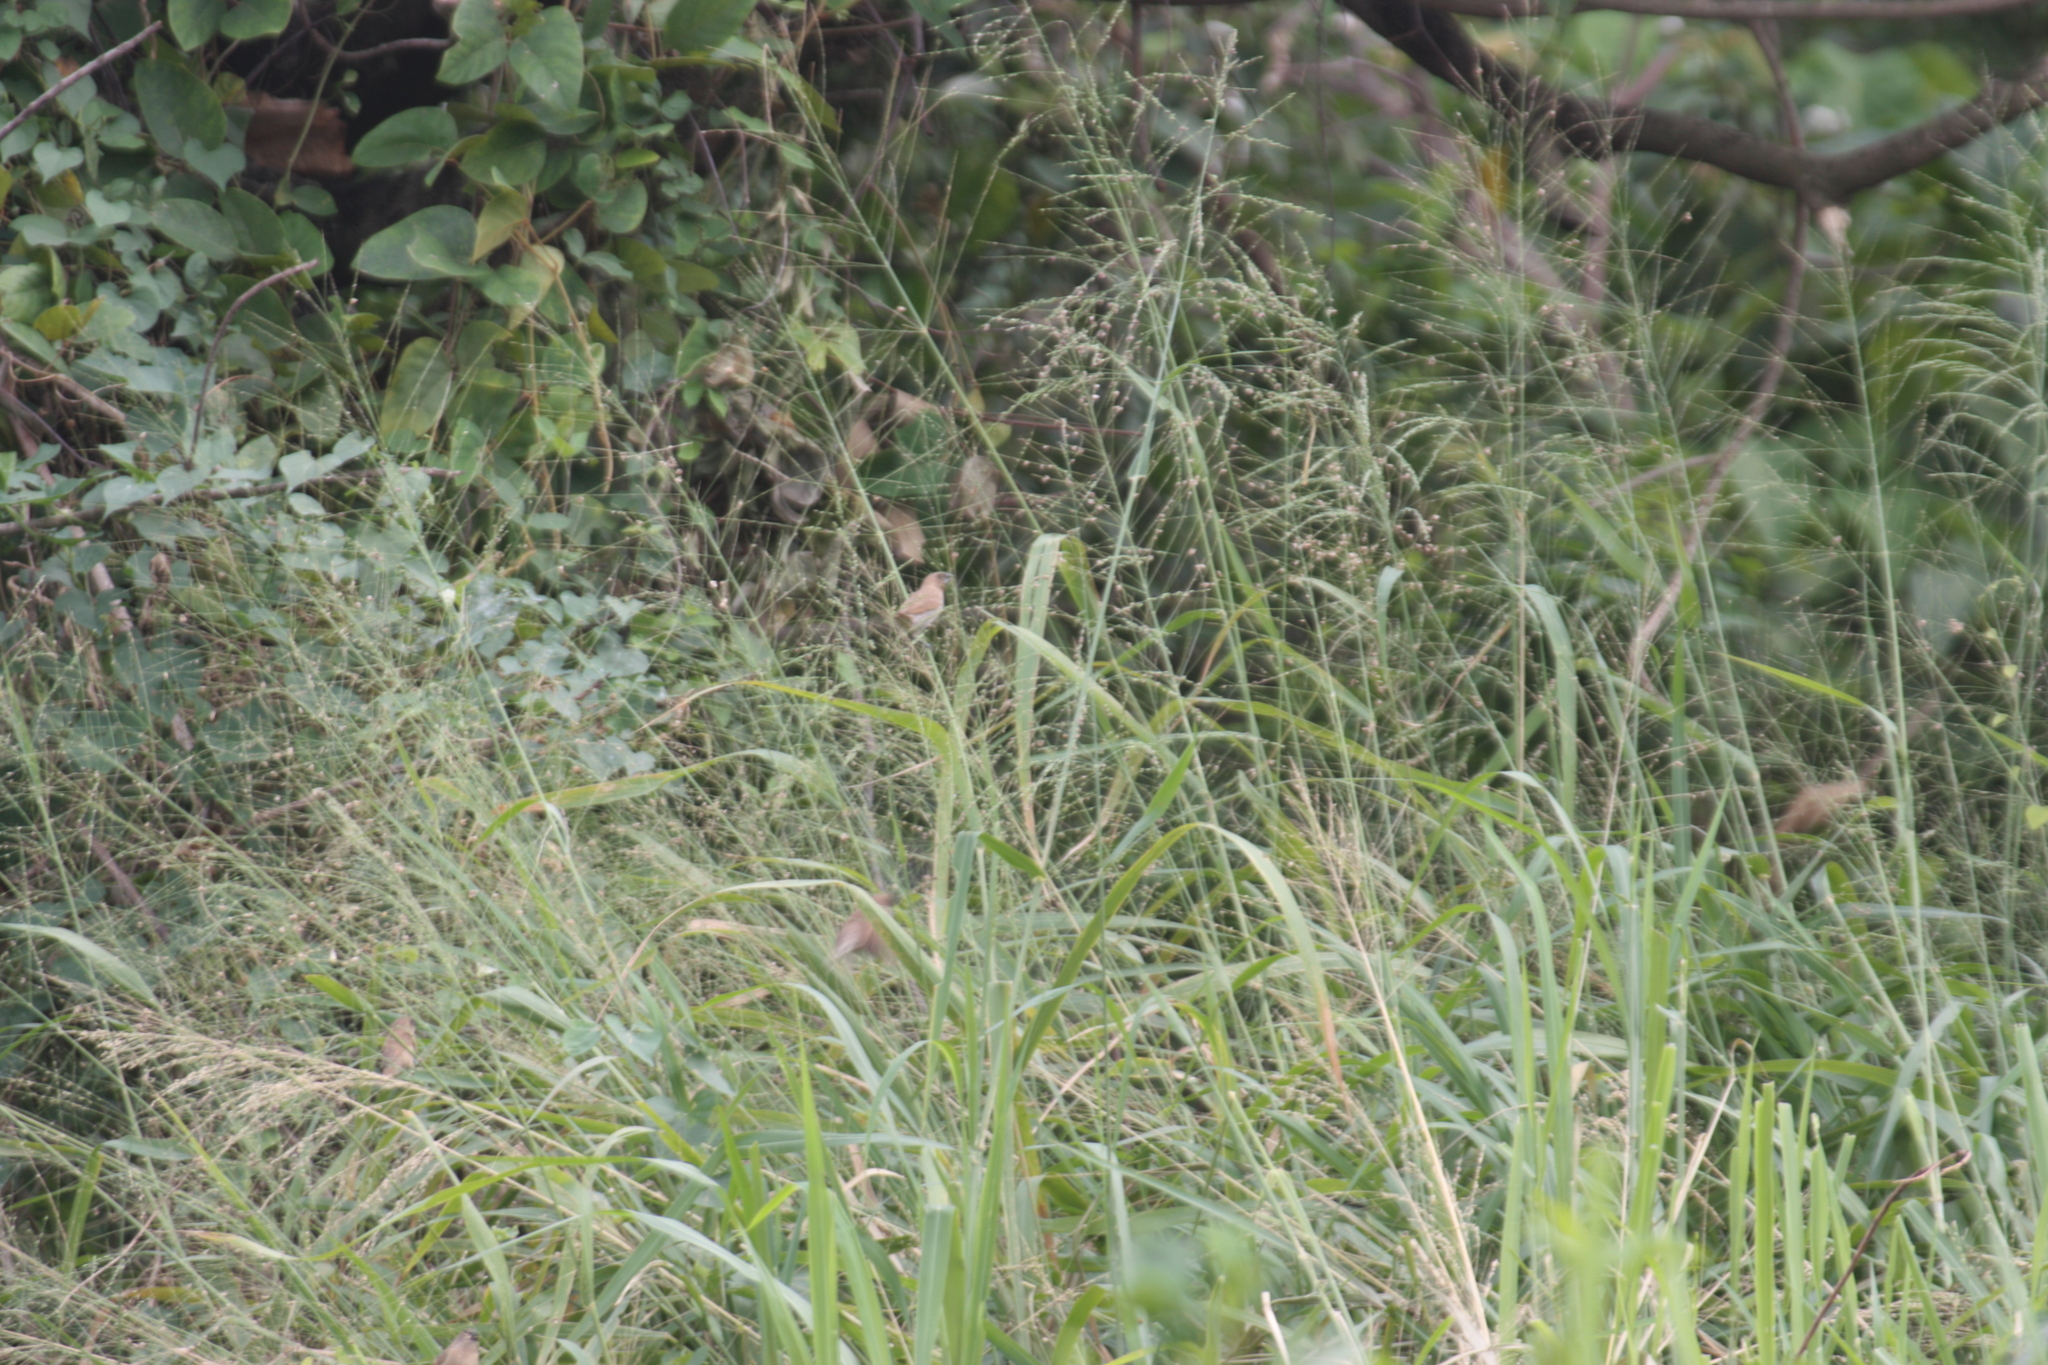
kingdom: Animalia
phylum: Chordata
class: Aves
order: Passeriformes
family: Estrildidae
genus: Lonchura
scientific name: Lonchura punctulata
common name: Scaly-breasted munia
